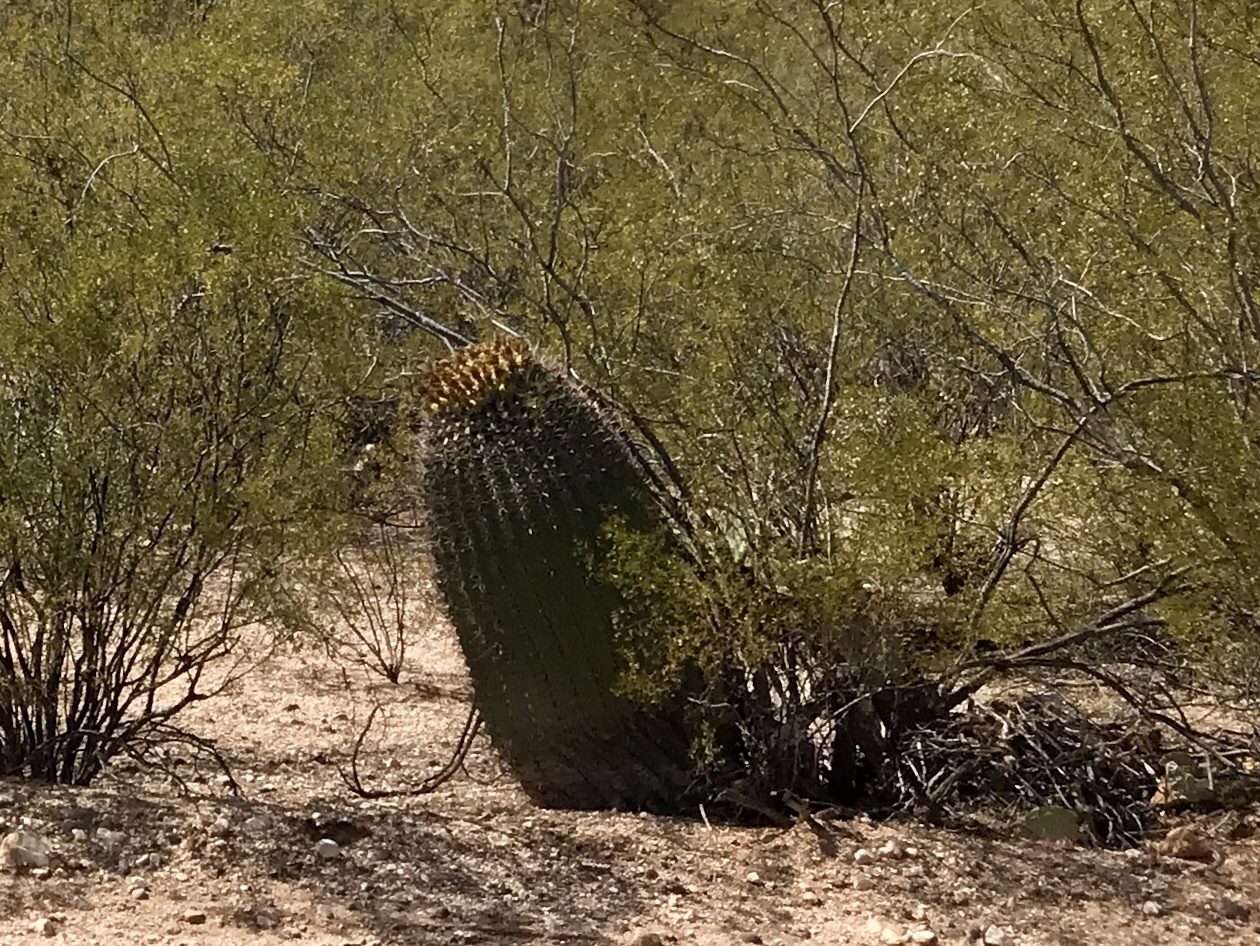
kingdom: Plantae
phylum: Tracheophyta
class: Magnoliopsida
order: Caryophyllales
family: Cactaceae
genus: Ferocactus
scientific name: Ferocactus wislizeni
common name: Candy barrel cactus
